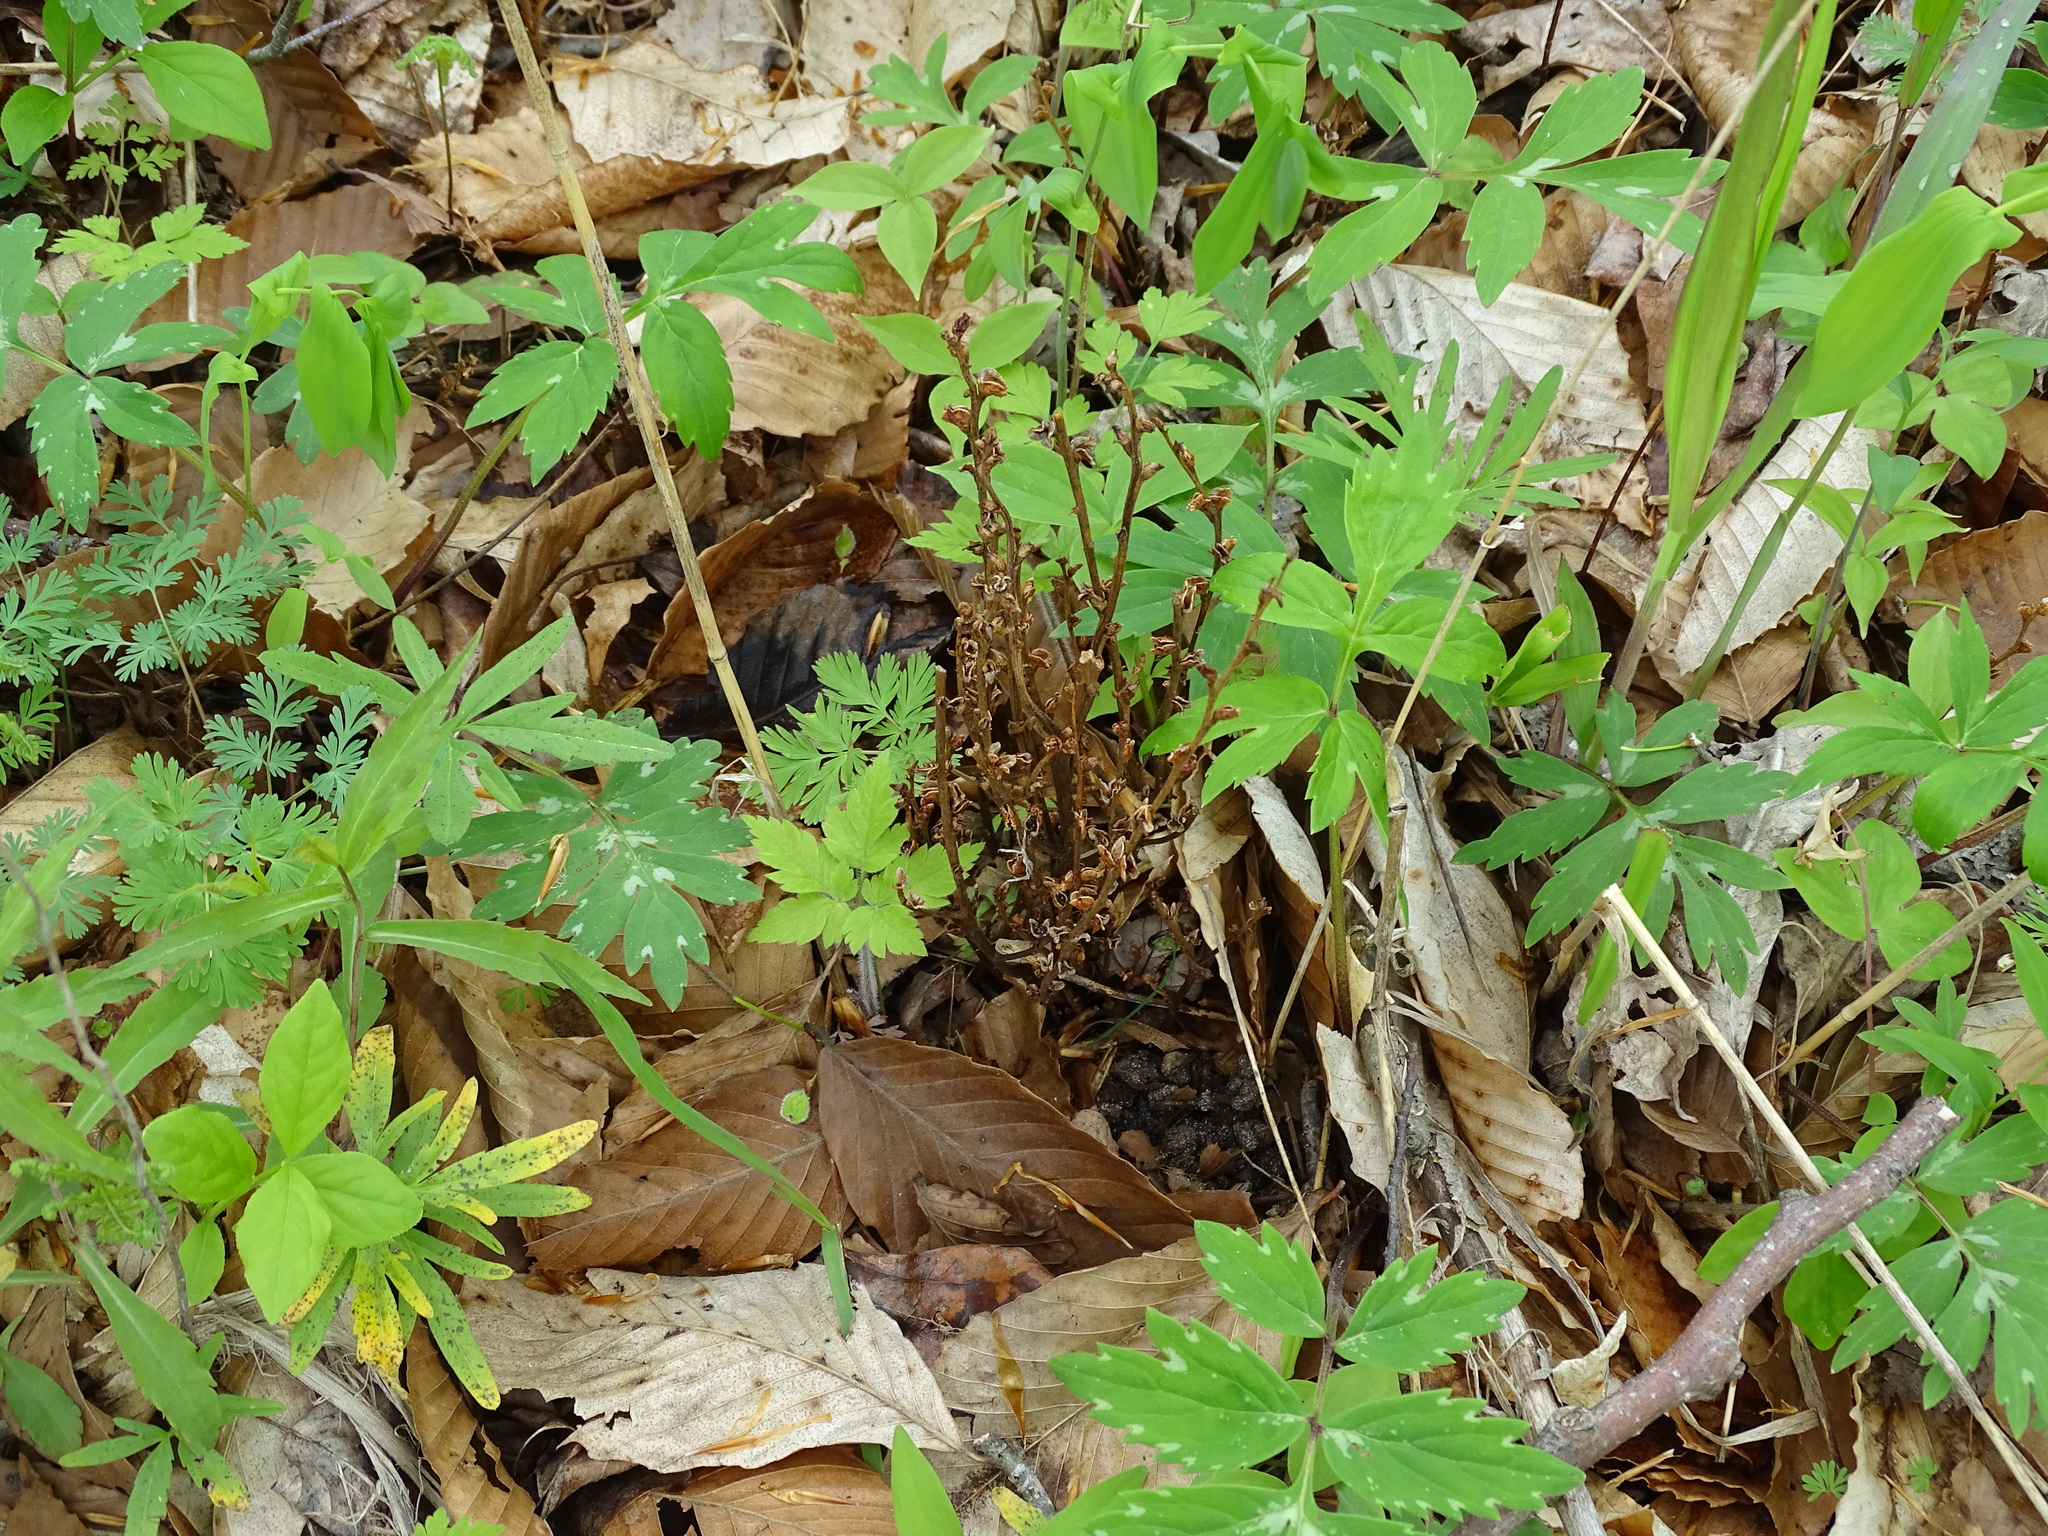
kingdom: Plantae
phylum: Tracheophyta
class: Magnoliopsida
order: Lamiales
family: Orobanchaceae
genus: Epifagus
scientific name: Epifagus virginiana
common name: Beechdrops
